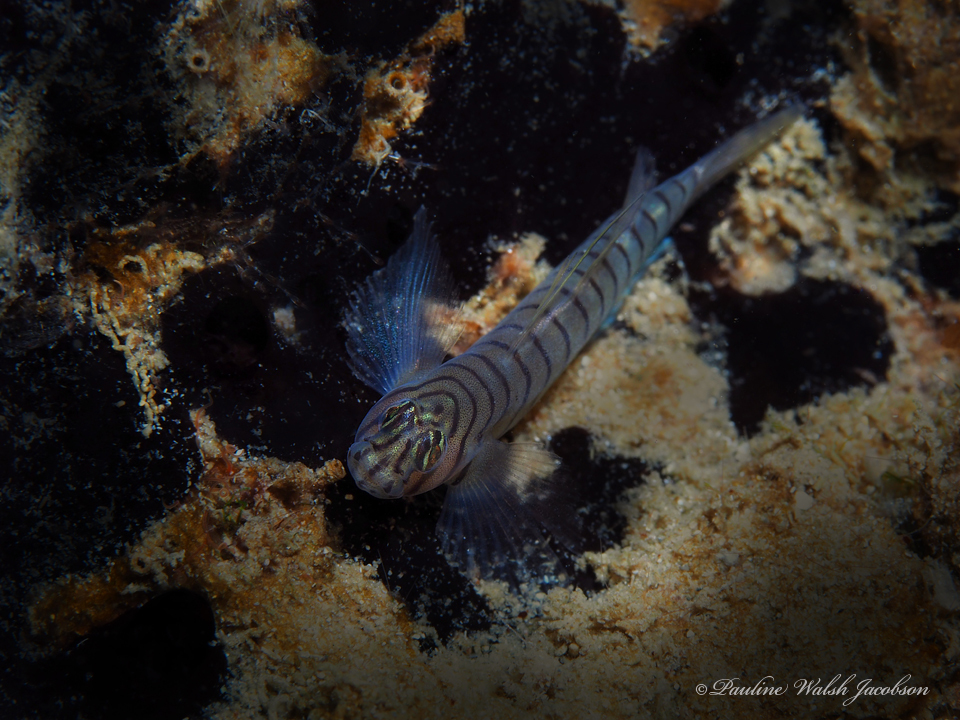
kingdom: Animalia
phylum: Chordata
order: Perciformes
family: Gobiidae
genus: Tigrigobius
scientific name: Tigrigobius macrodon
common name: Tiger goby
